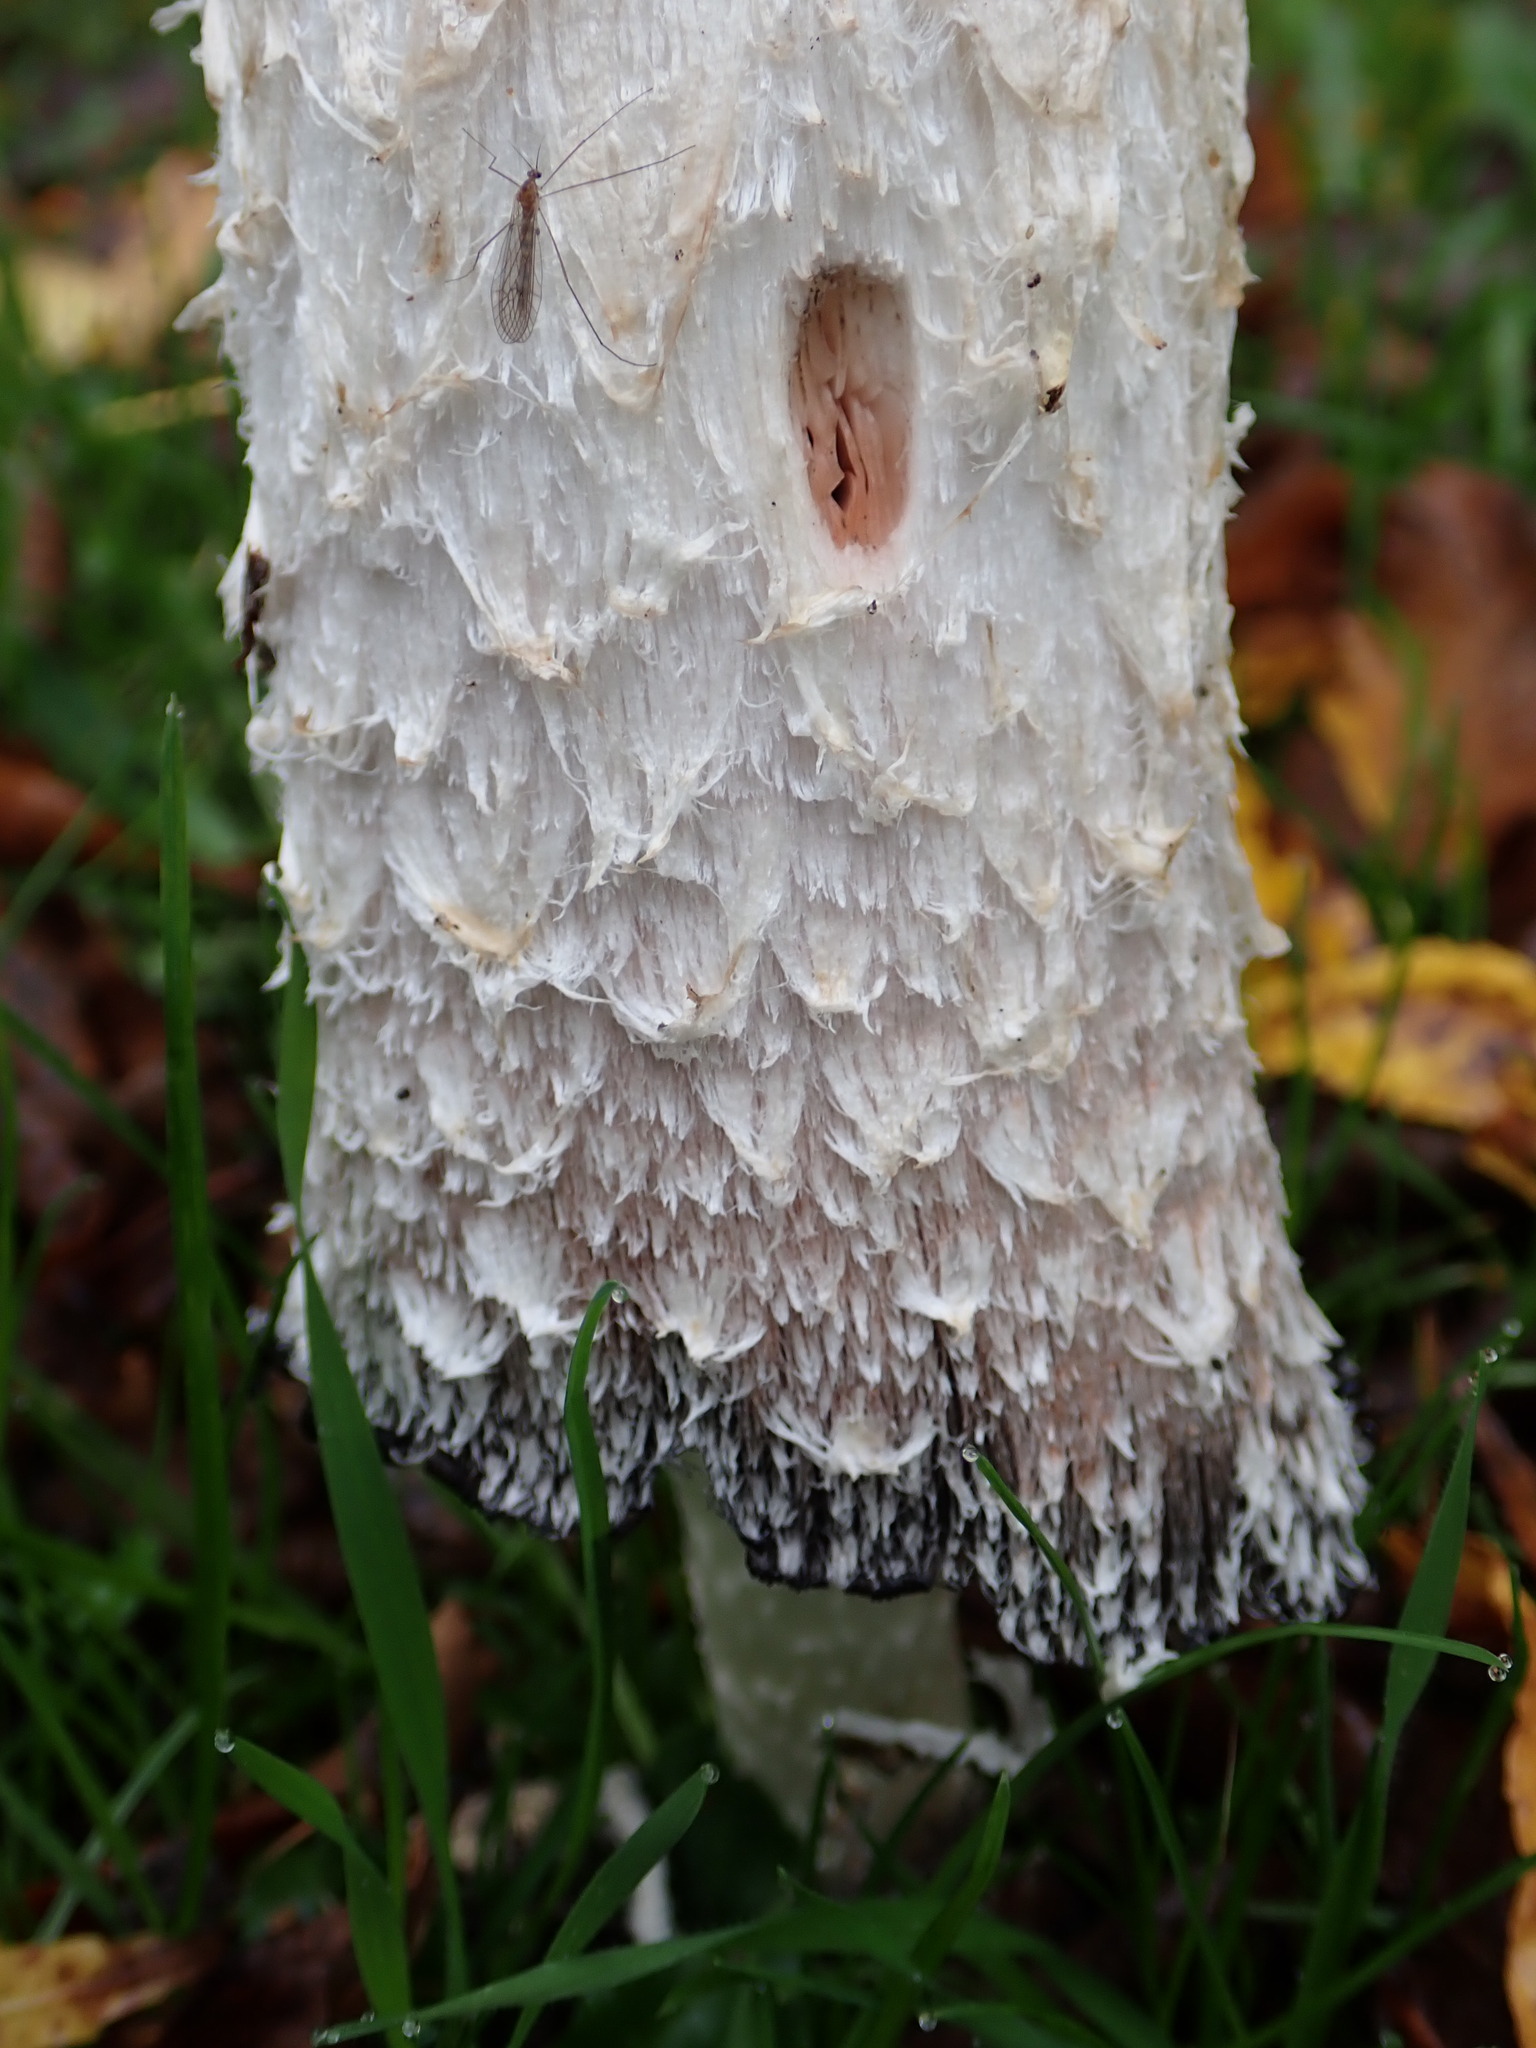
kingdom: Fungi
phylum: Basidiomycota
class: Agaricomycetes
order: Agaricales
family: Agaricaceae
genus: Coprinus
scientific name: Coprinus comatus
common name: Lawyer's wig
